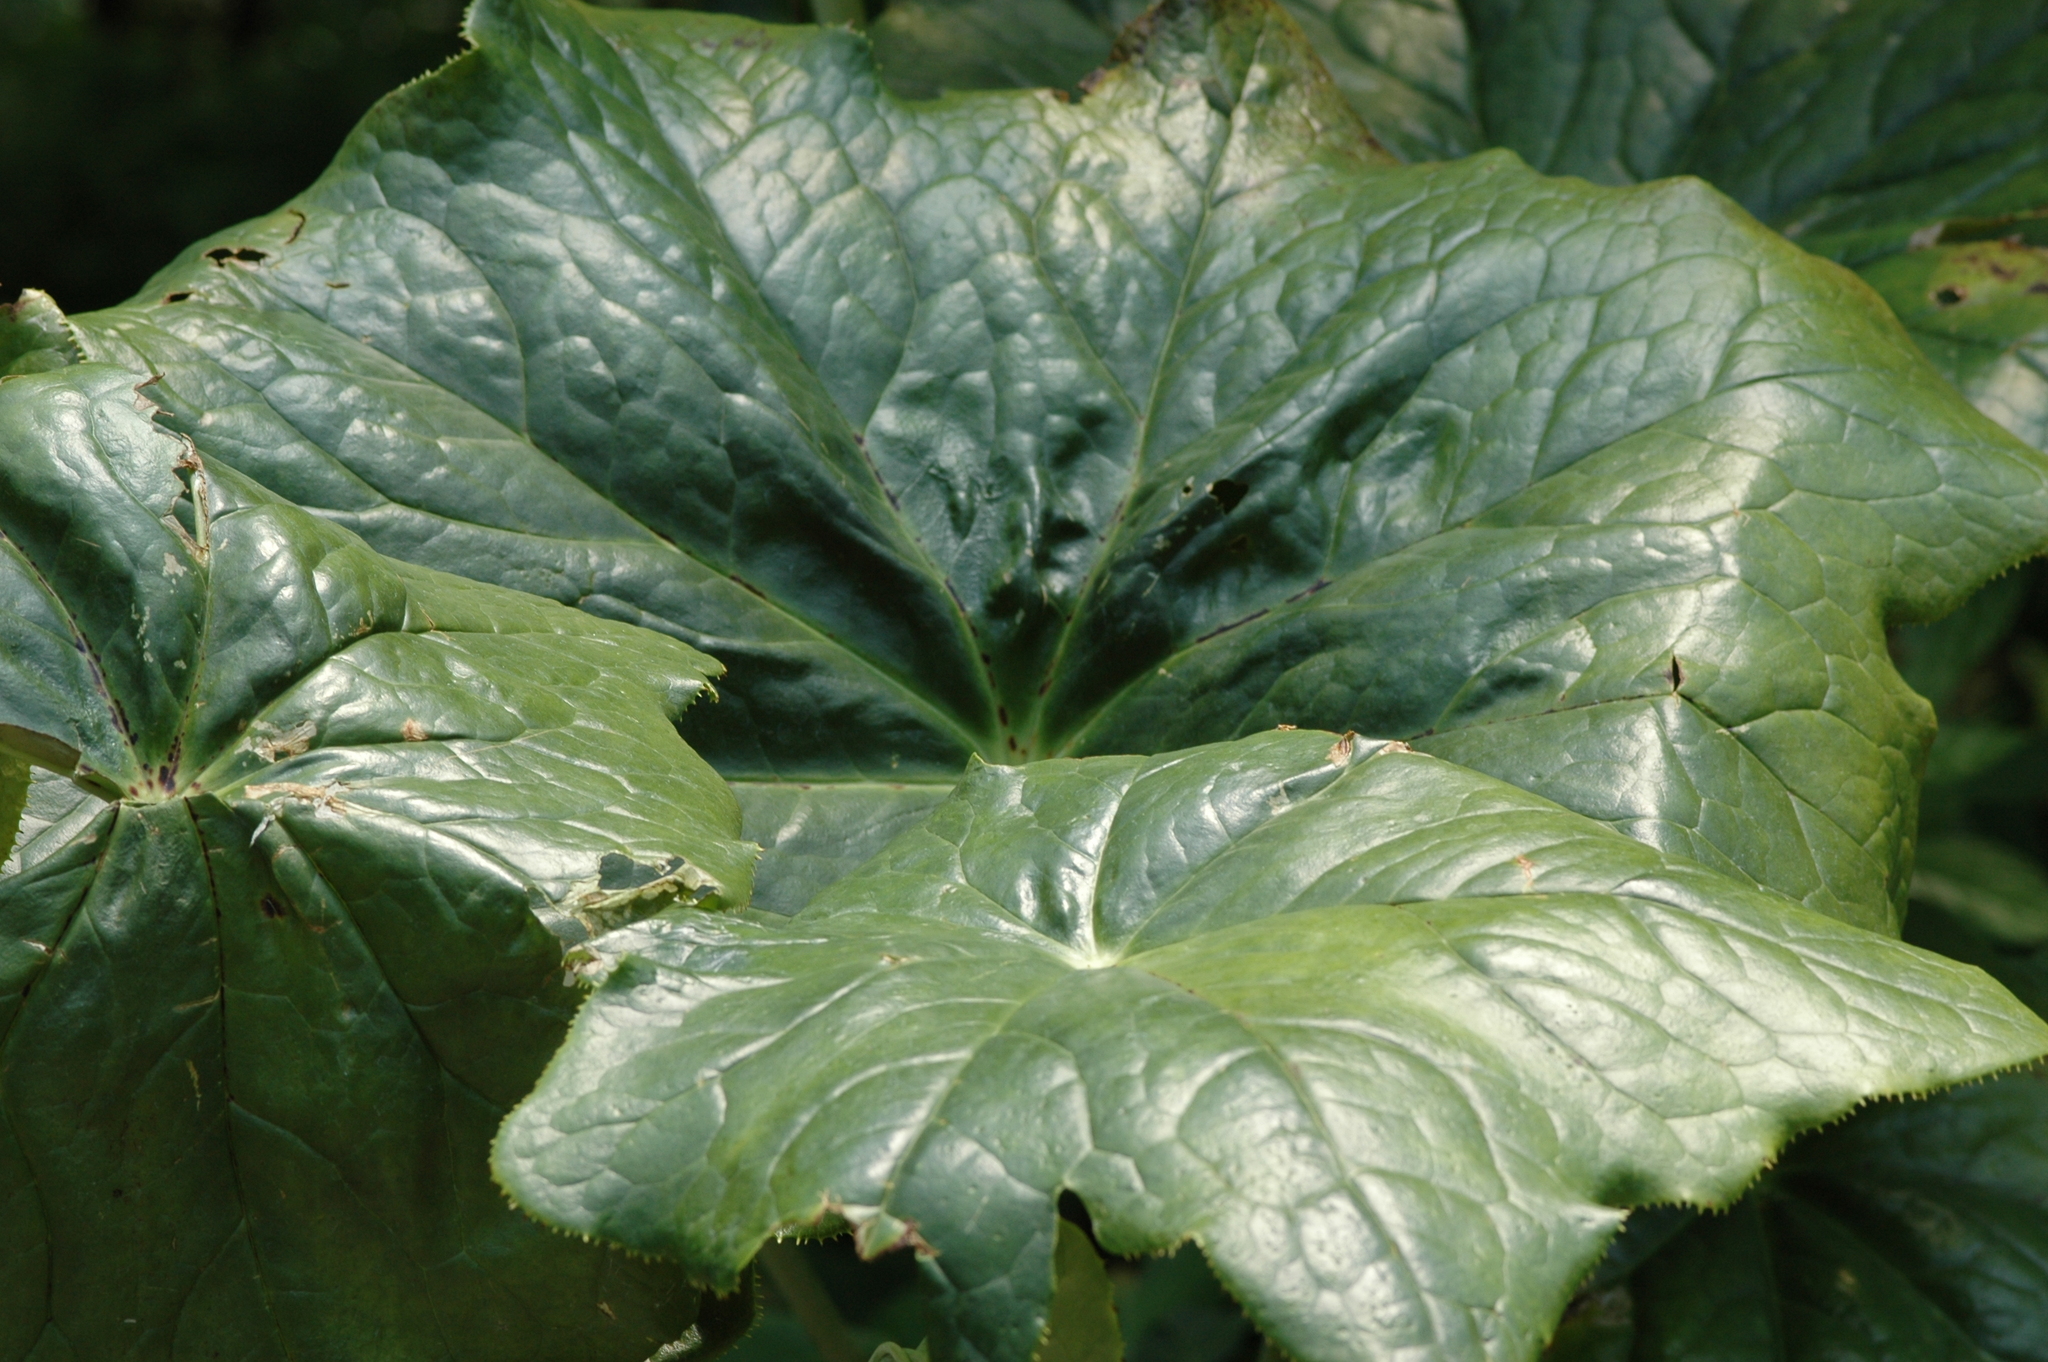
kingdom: Plantae
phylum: Tracheophyta
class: Magnoliopsida
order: Ranunculales
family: Berberidaceae
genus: Dysosma
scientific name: Dysosma pleiantha
